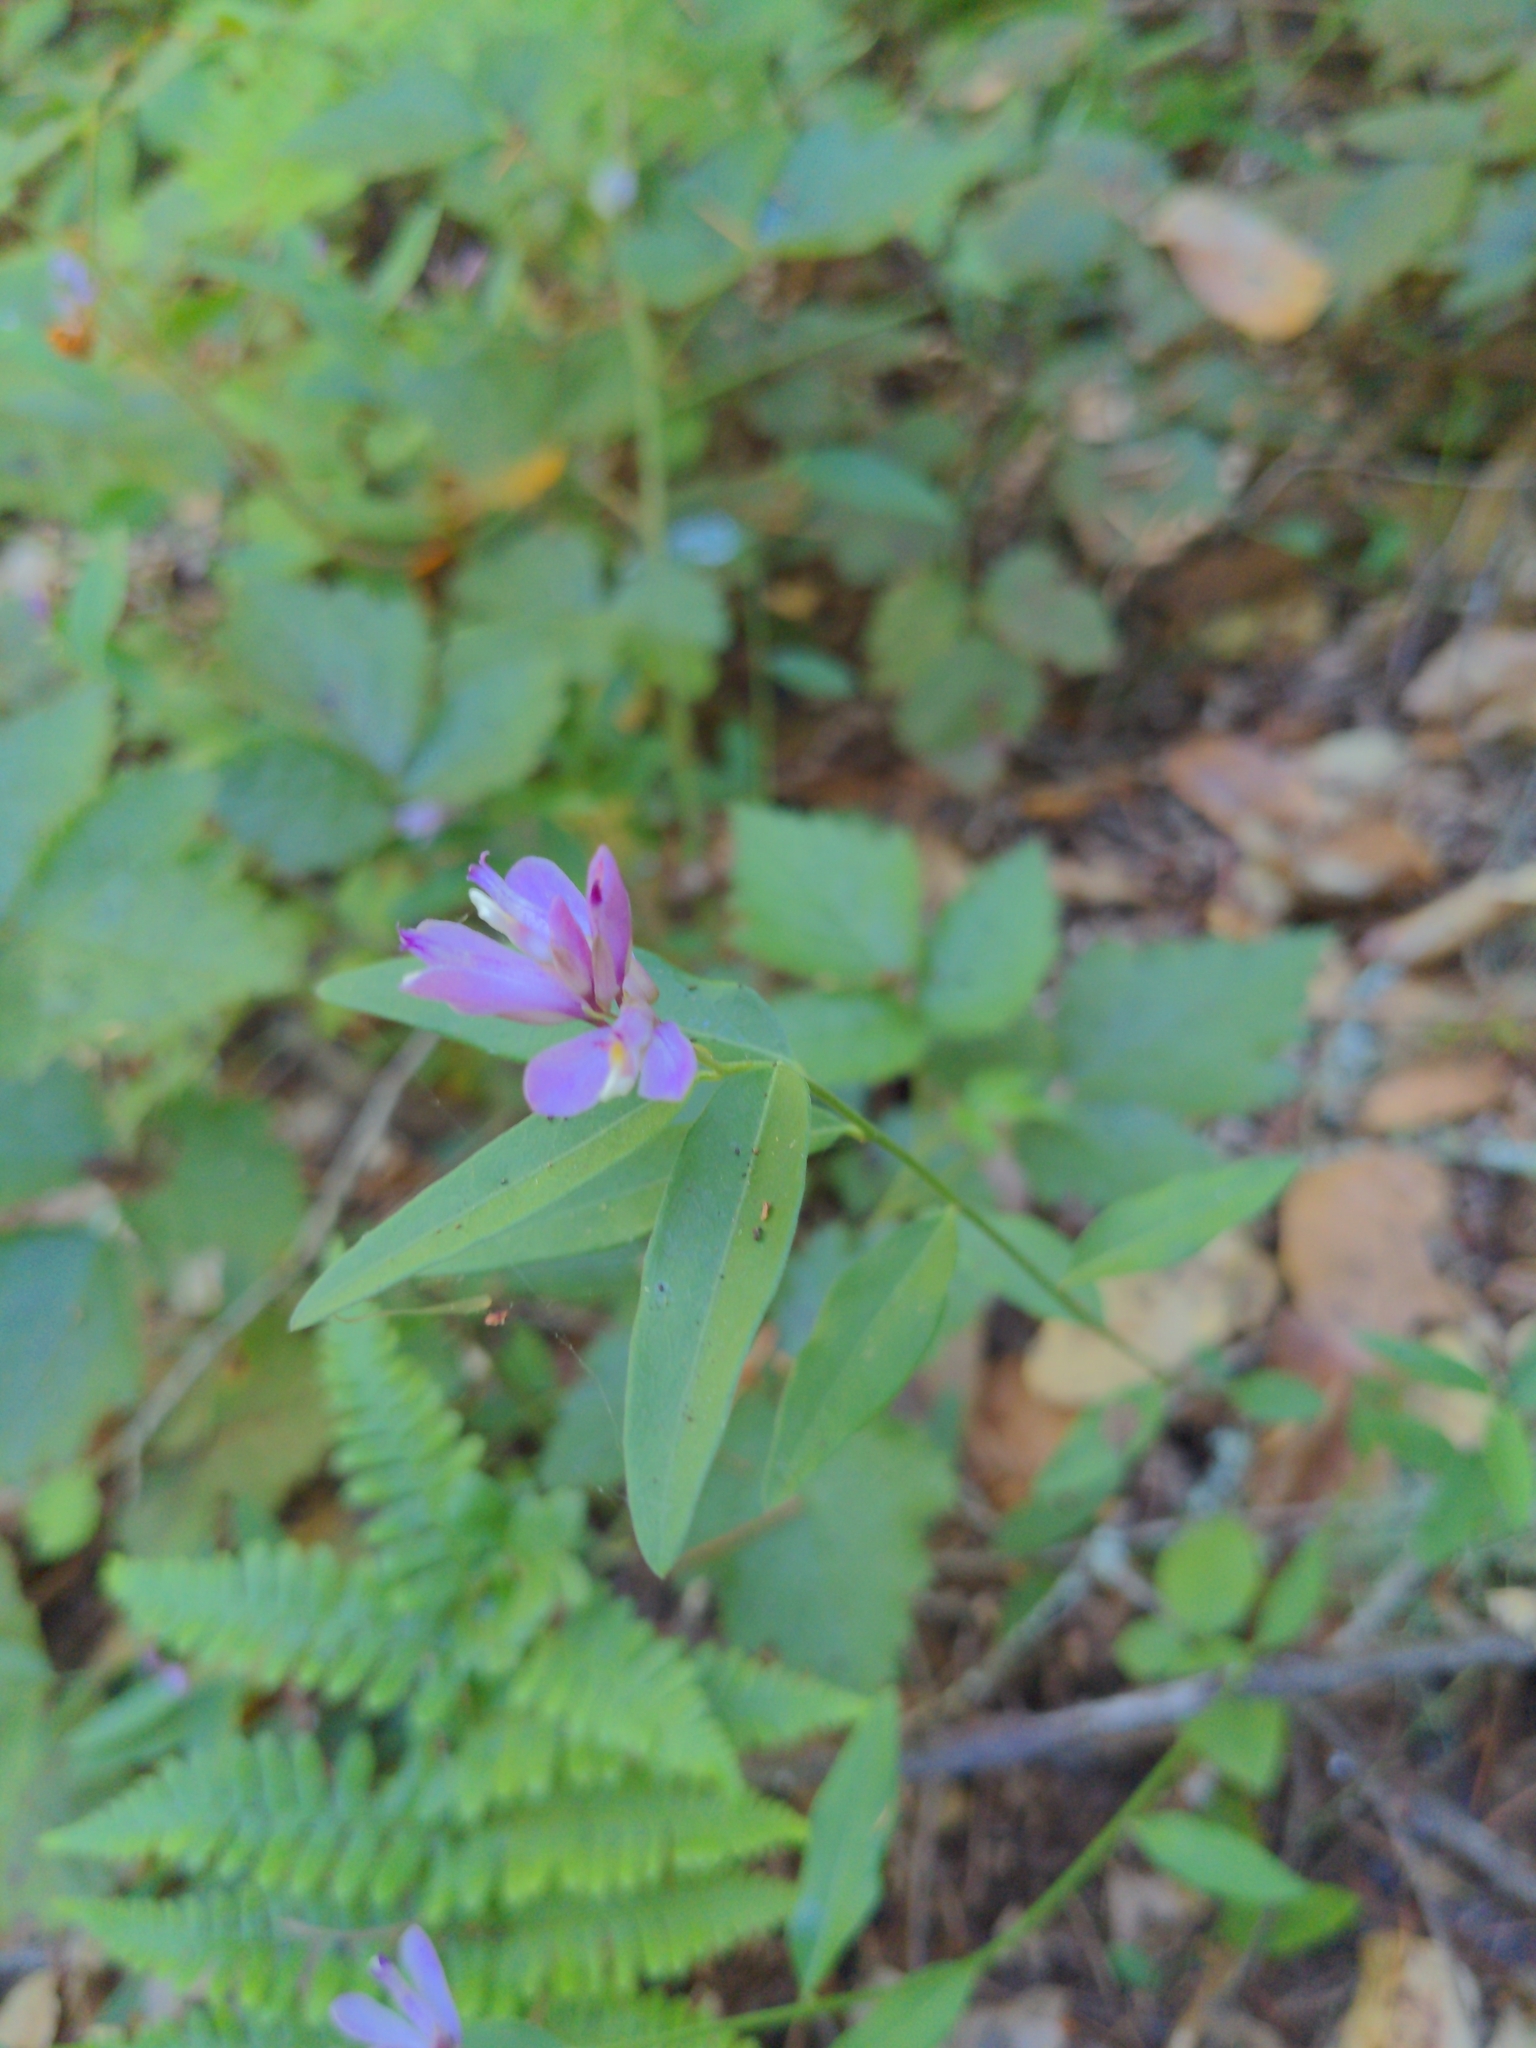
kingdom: Plantae
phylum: Tracheophyta
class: Magnoliopsida
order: Fabales
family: Polygalaceae
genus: Rhinotropis
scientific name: Rhinotropis californica
